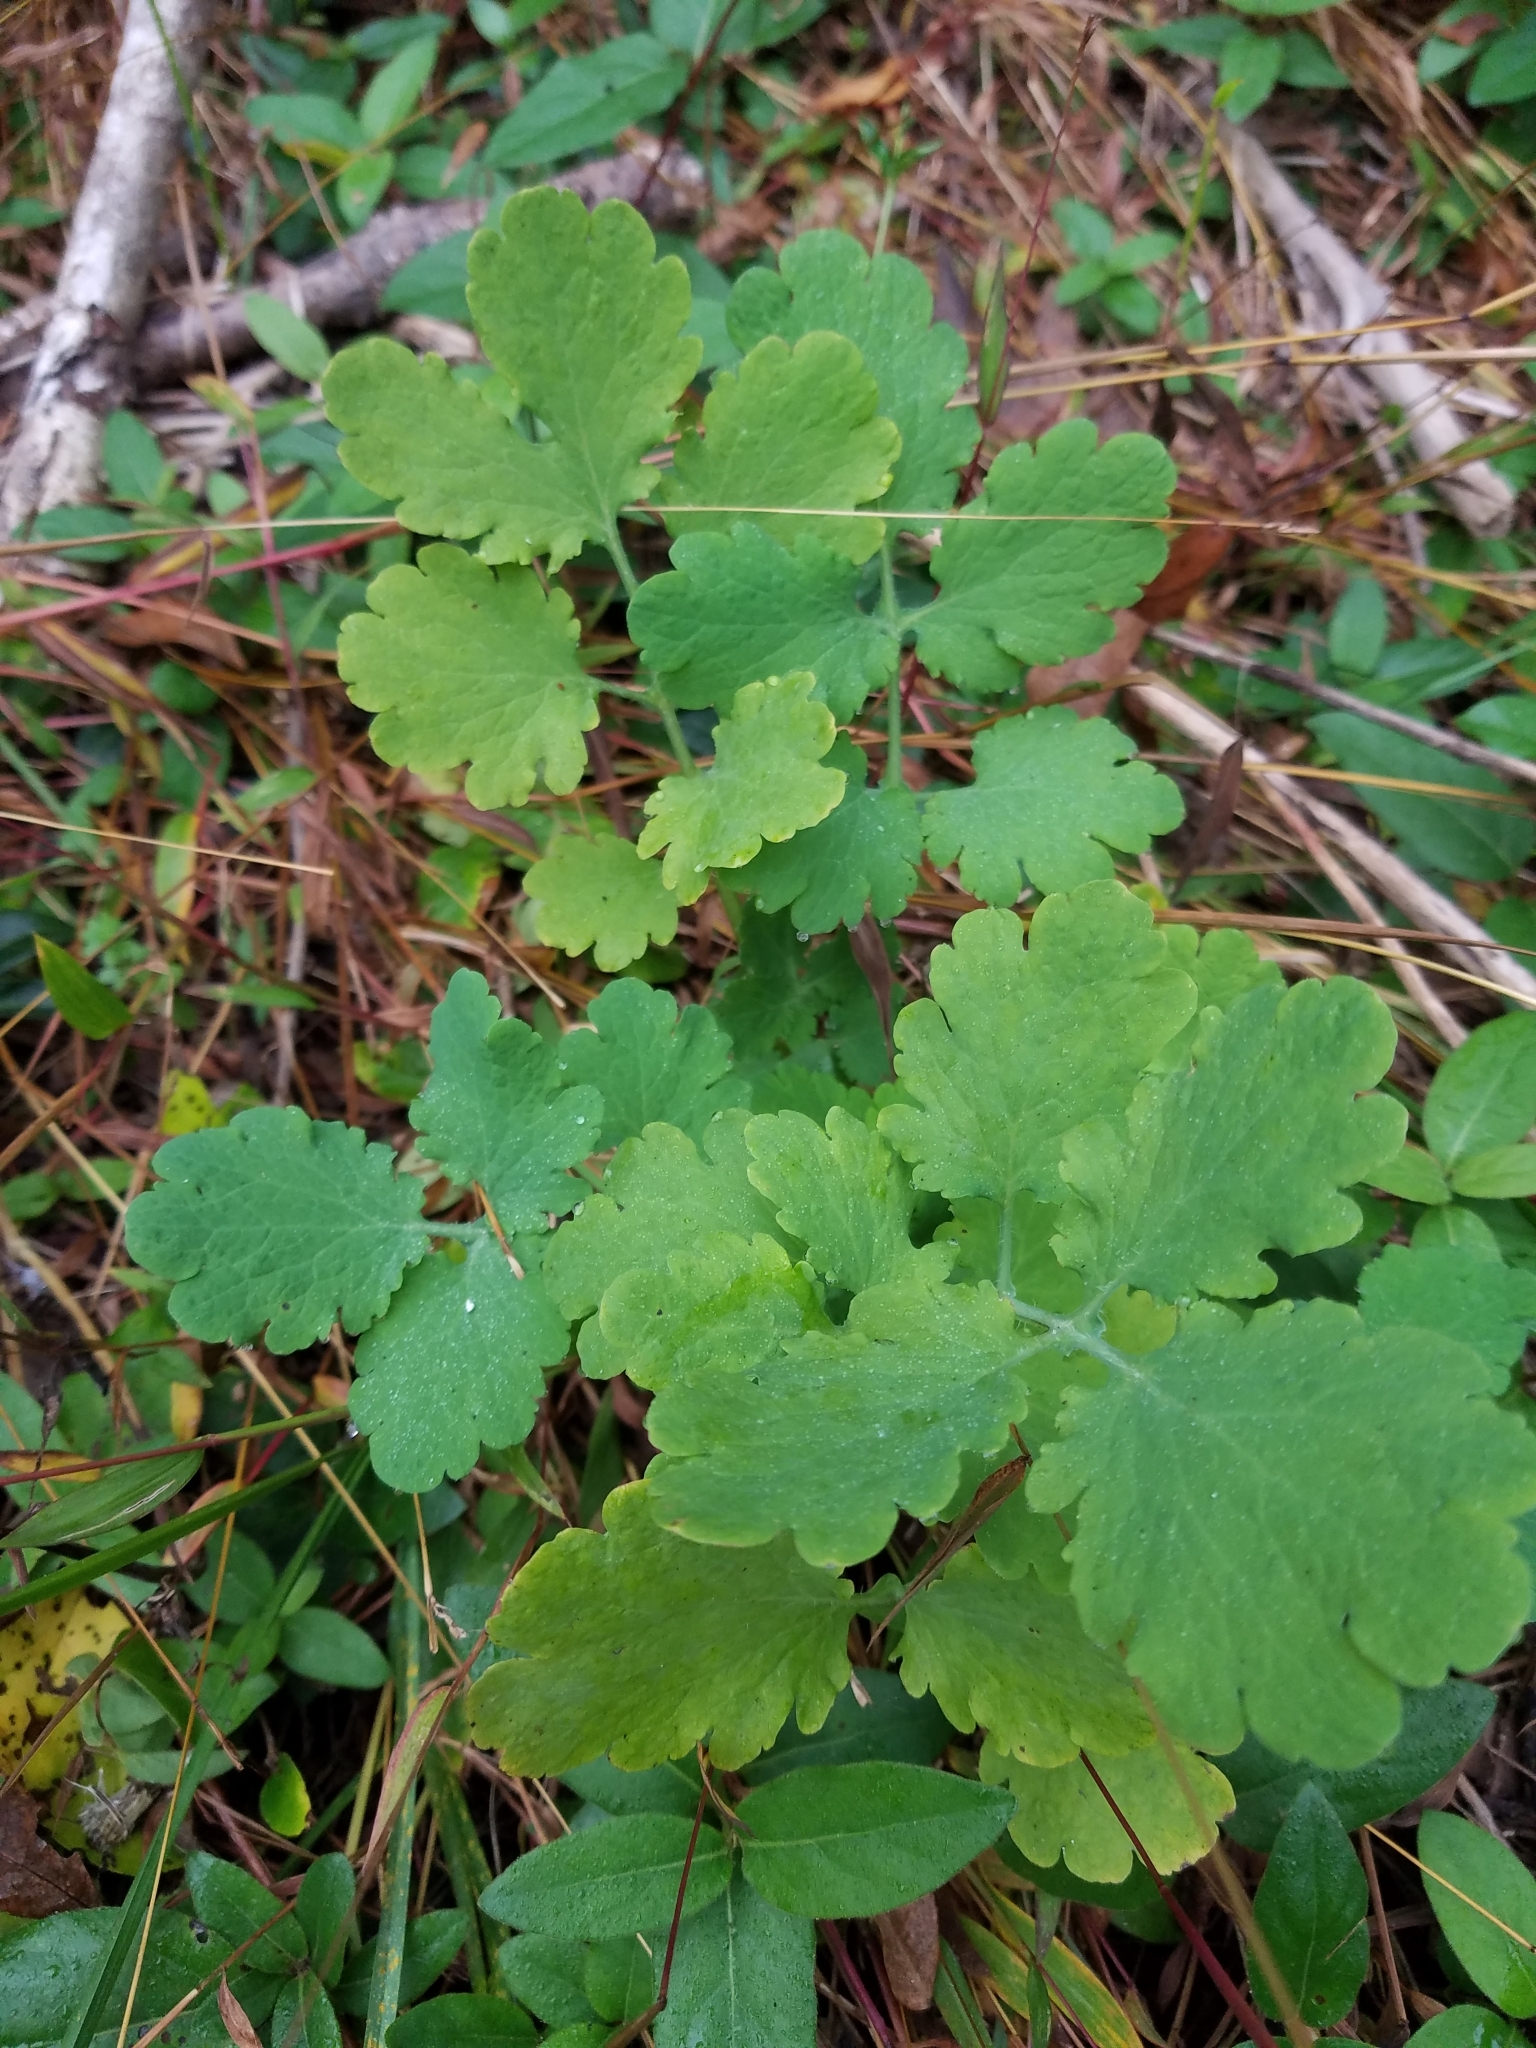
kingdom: Plantae
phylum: Tracheophyta
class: Magnoliopsida
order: Ranunculales
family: Papaveraceae
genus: Chelidonium
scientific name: Chelidonium majus
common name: Greater celandine
